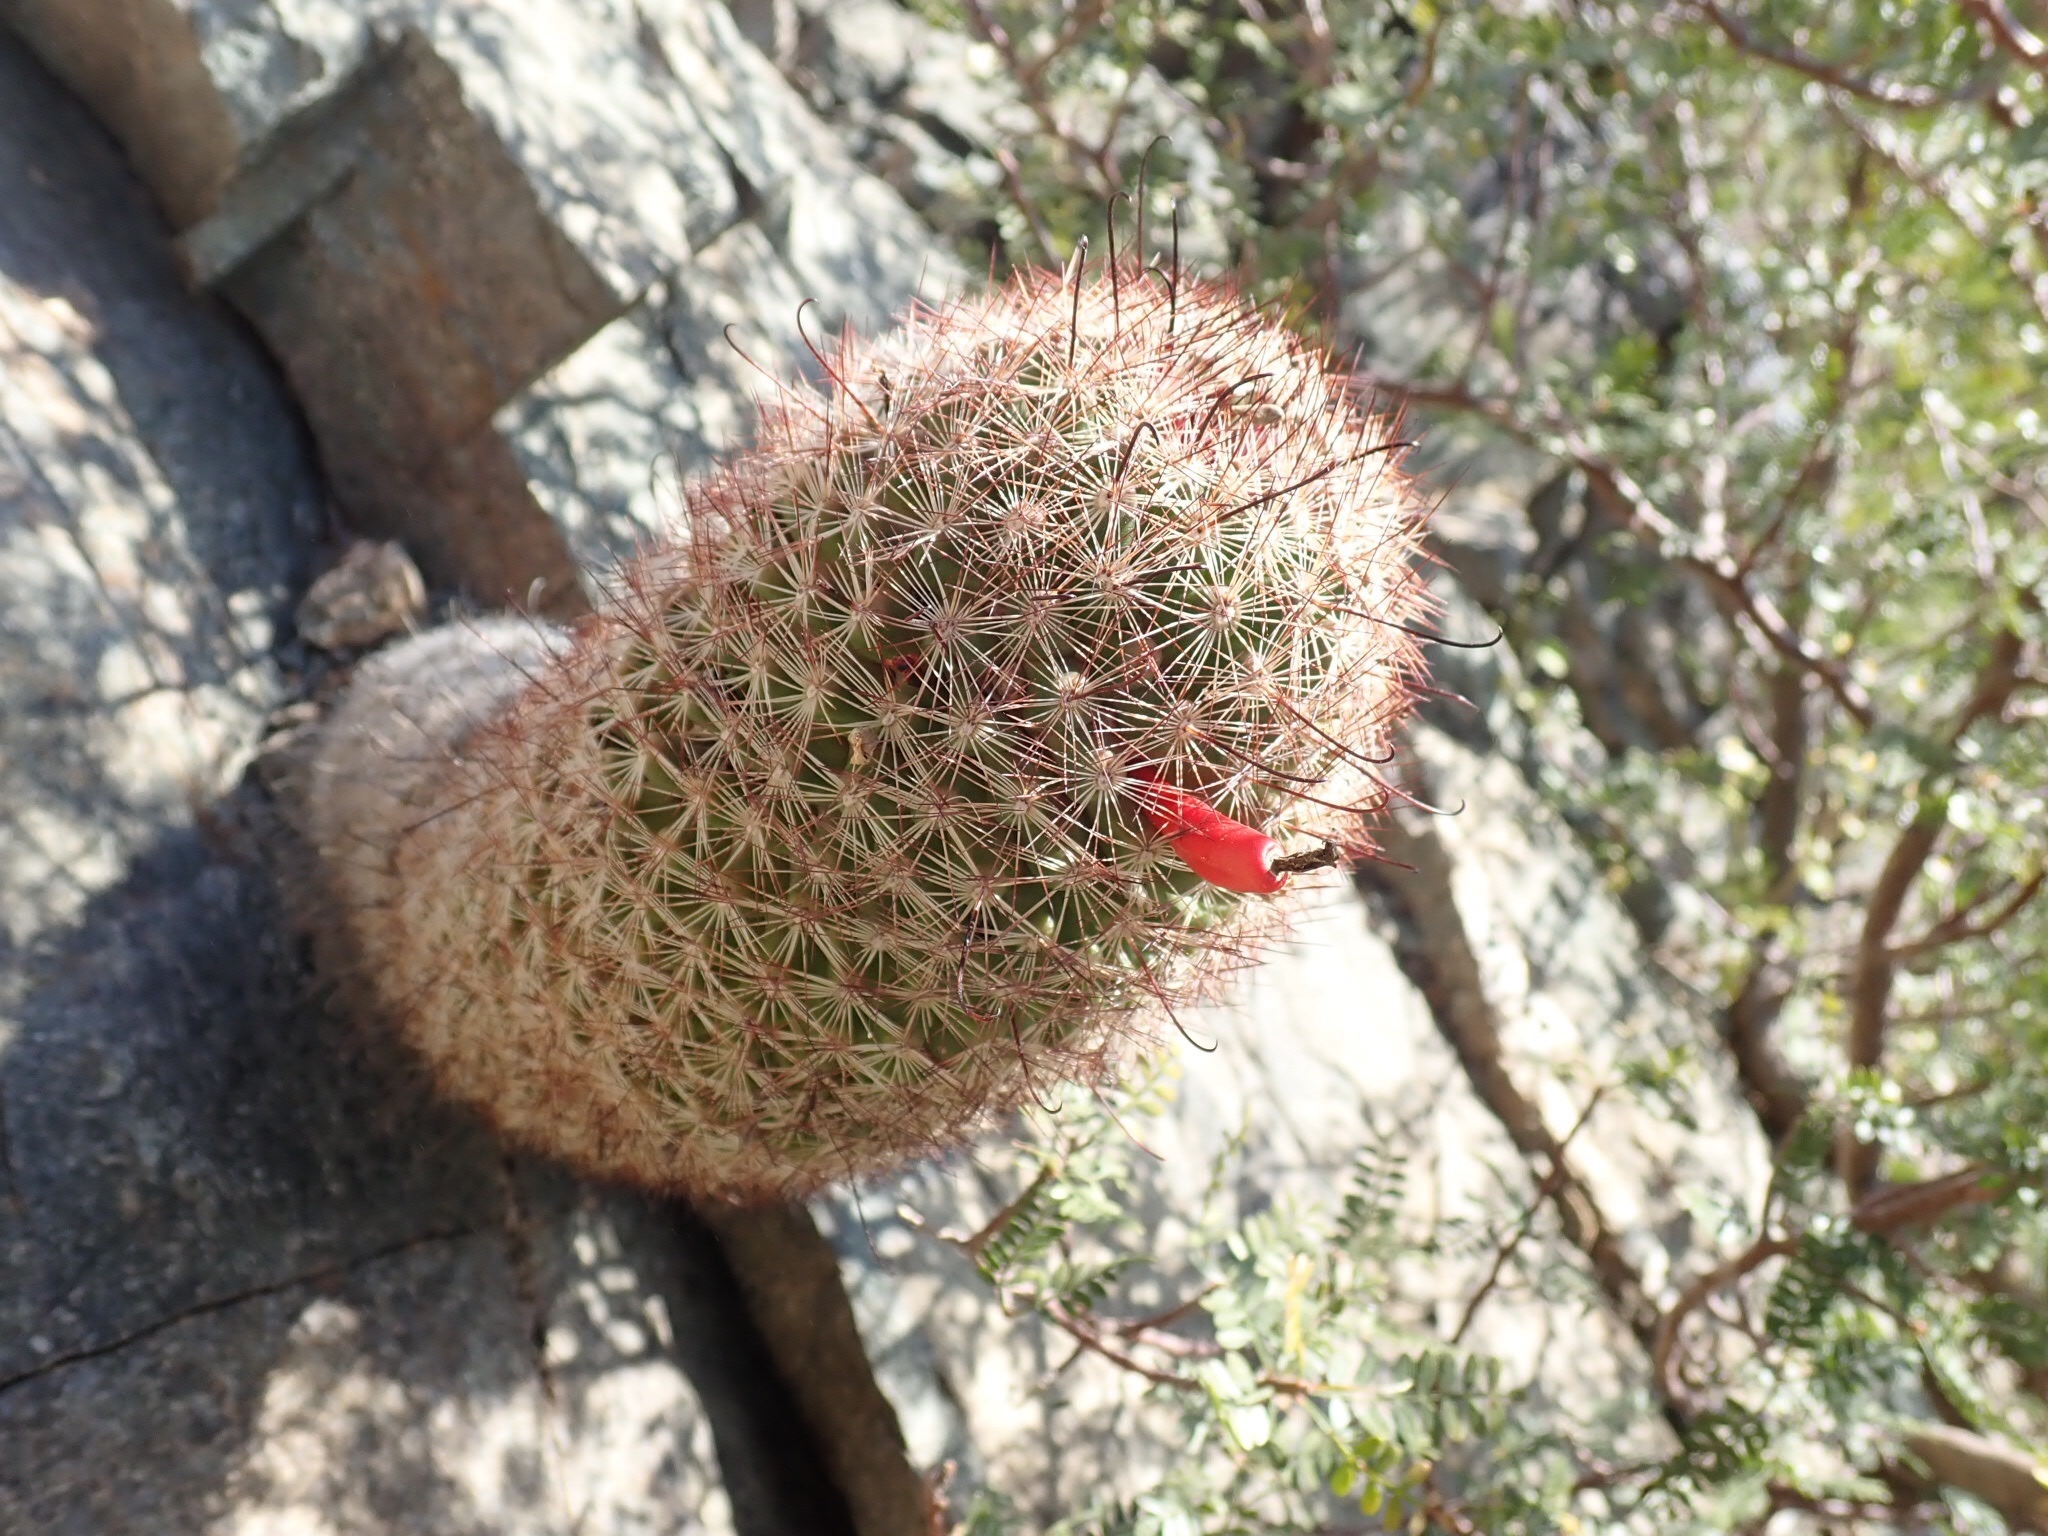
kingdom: Plantae
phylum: Tracheophyta
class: Magnoliopsida
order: Caryophyllales
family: Cactaceae
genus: Cochemiea
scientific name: Cochemiea grahamii
